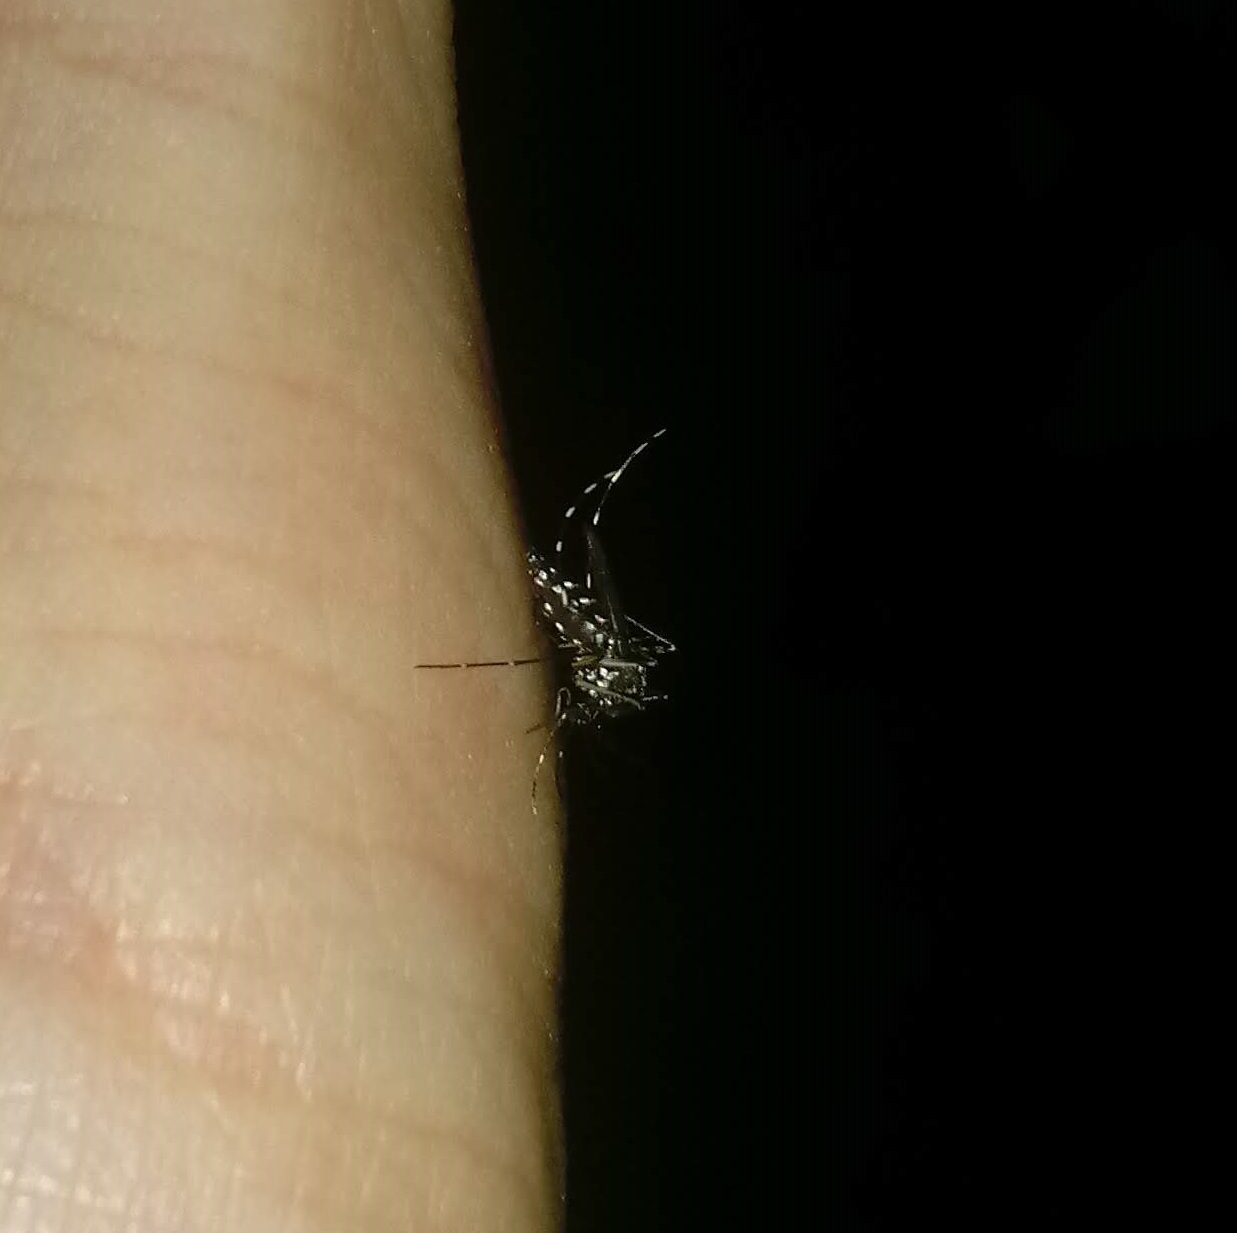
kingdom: Animalia
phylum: Arthropoda
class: Insecta
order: Diptera
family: Culicidae
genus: Aedes
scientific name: Aedes albopictus
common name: Tiger mosquito
